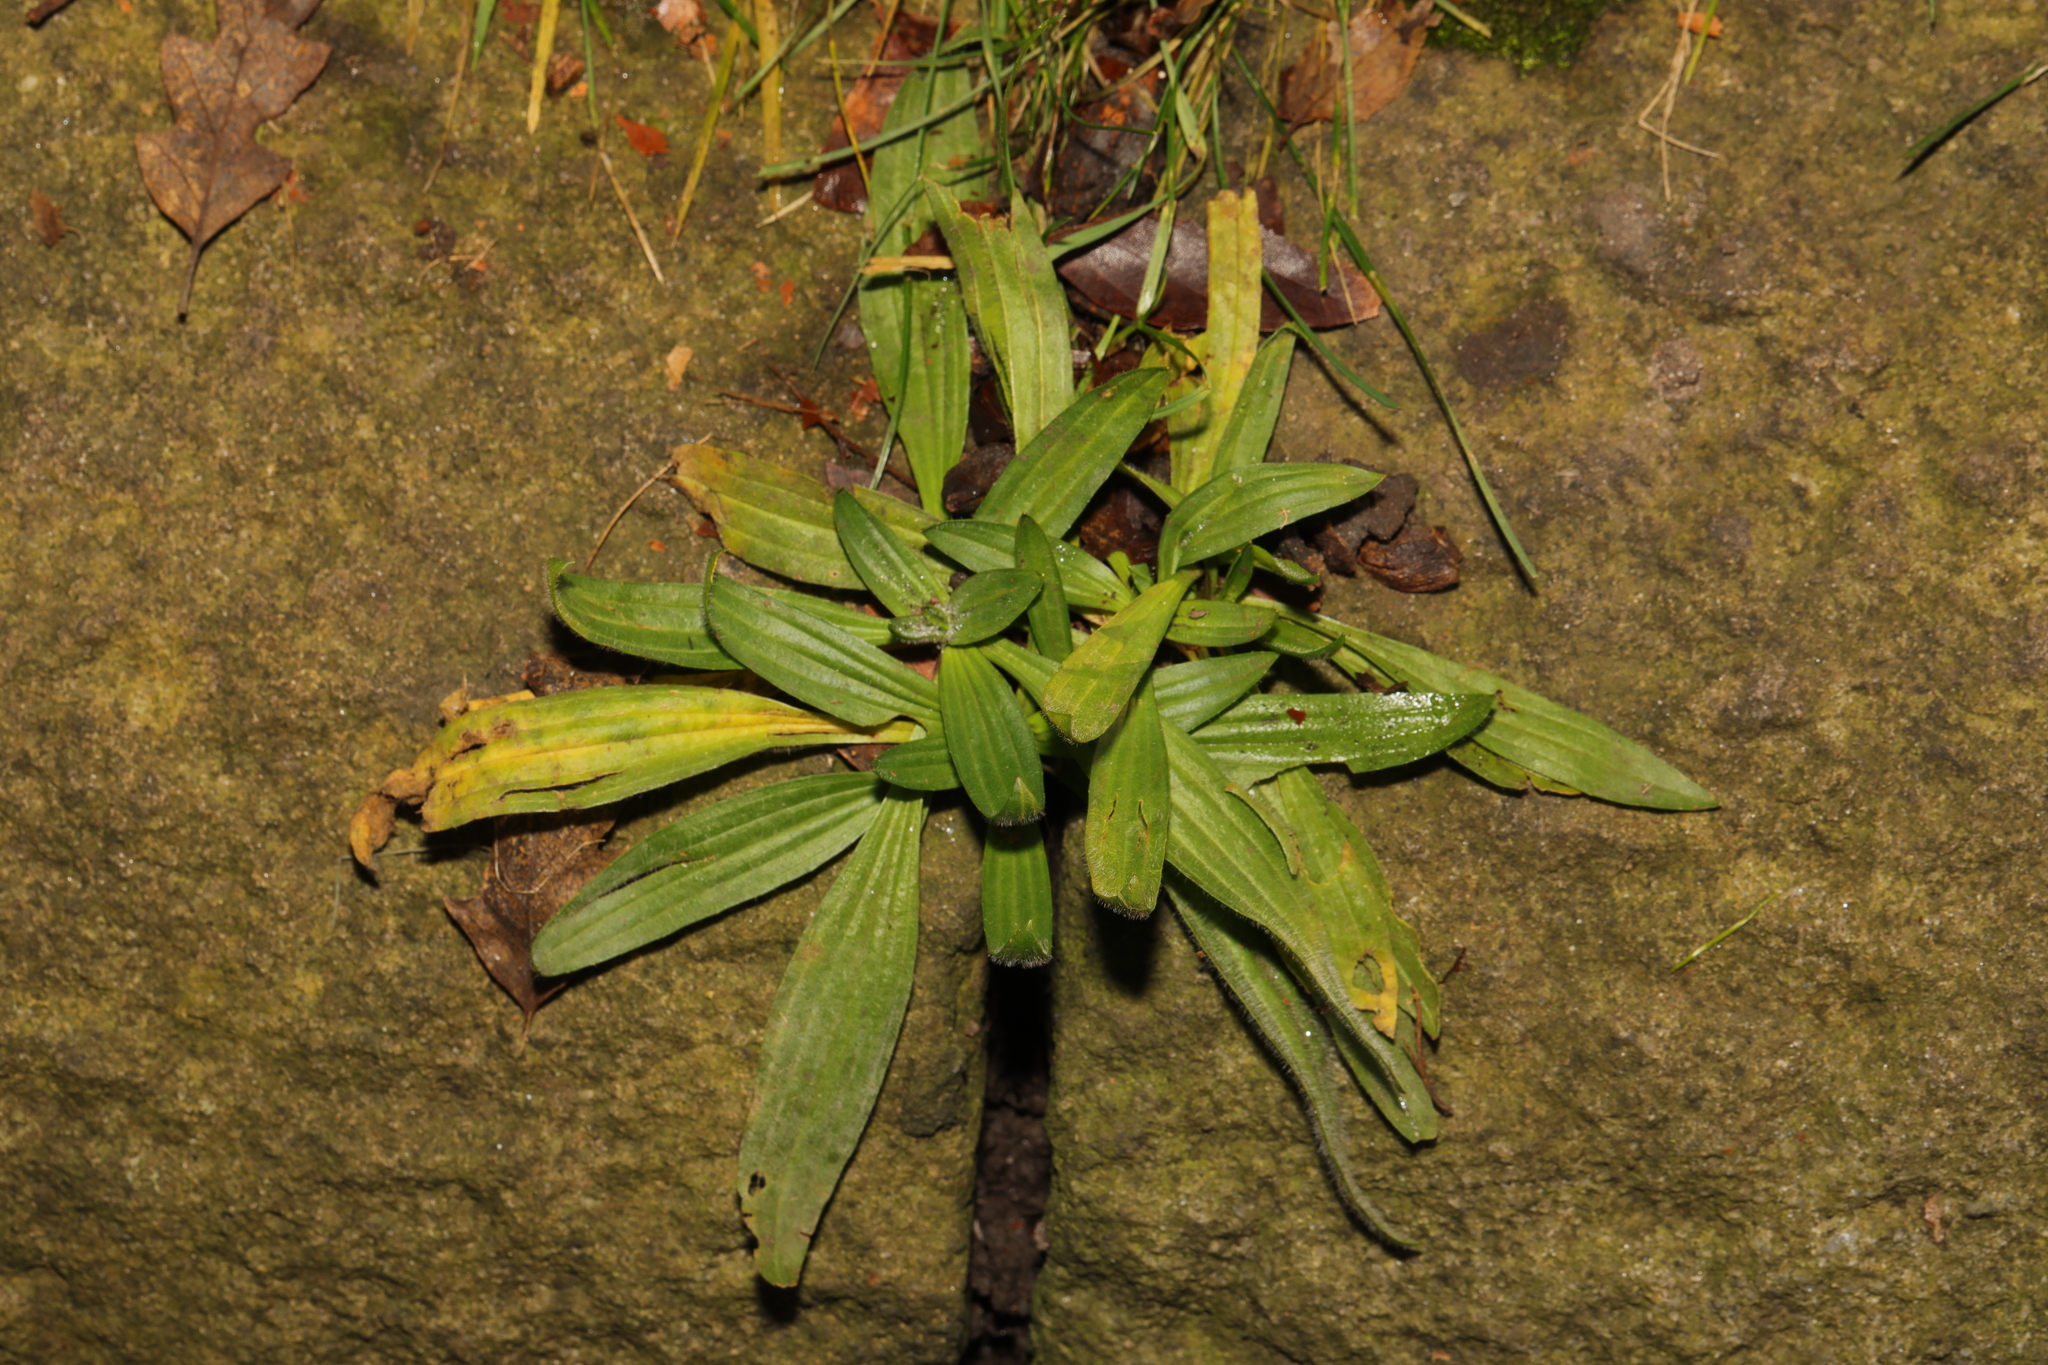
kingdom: Plantae
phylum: Tracheophyta
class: Magnoliopsida
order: Lamiales
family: Plantaginaceae
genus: Plantago
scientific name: Plantago lanceolata
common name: Ribwort plantain
